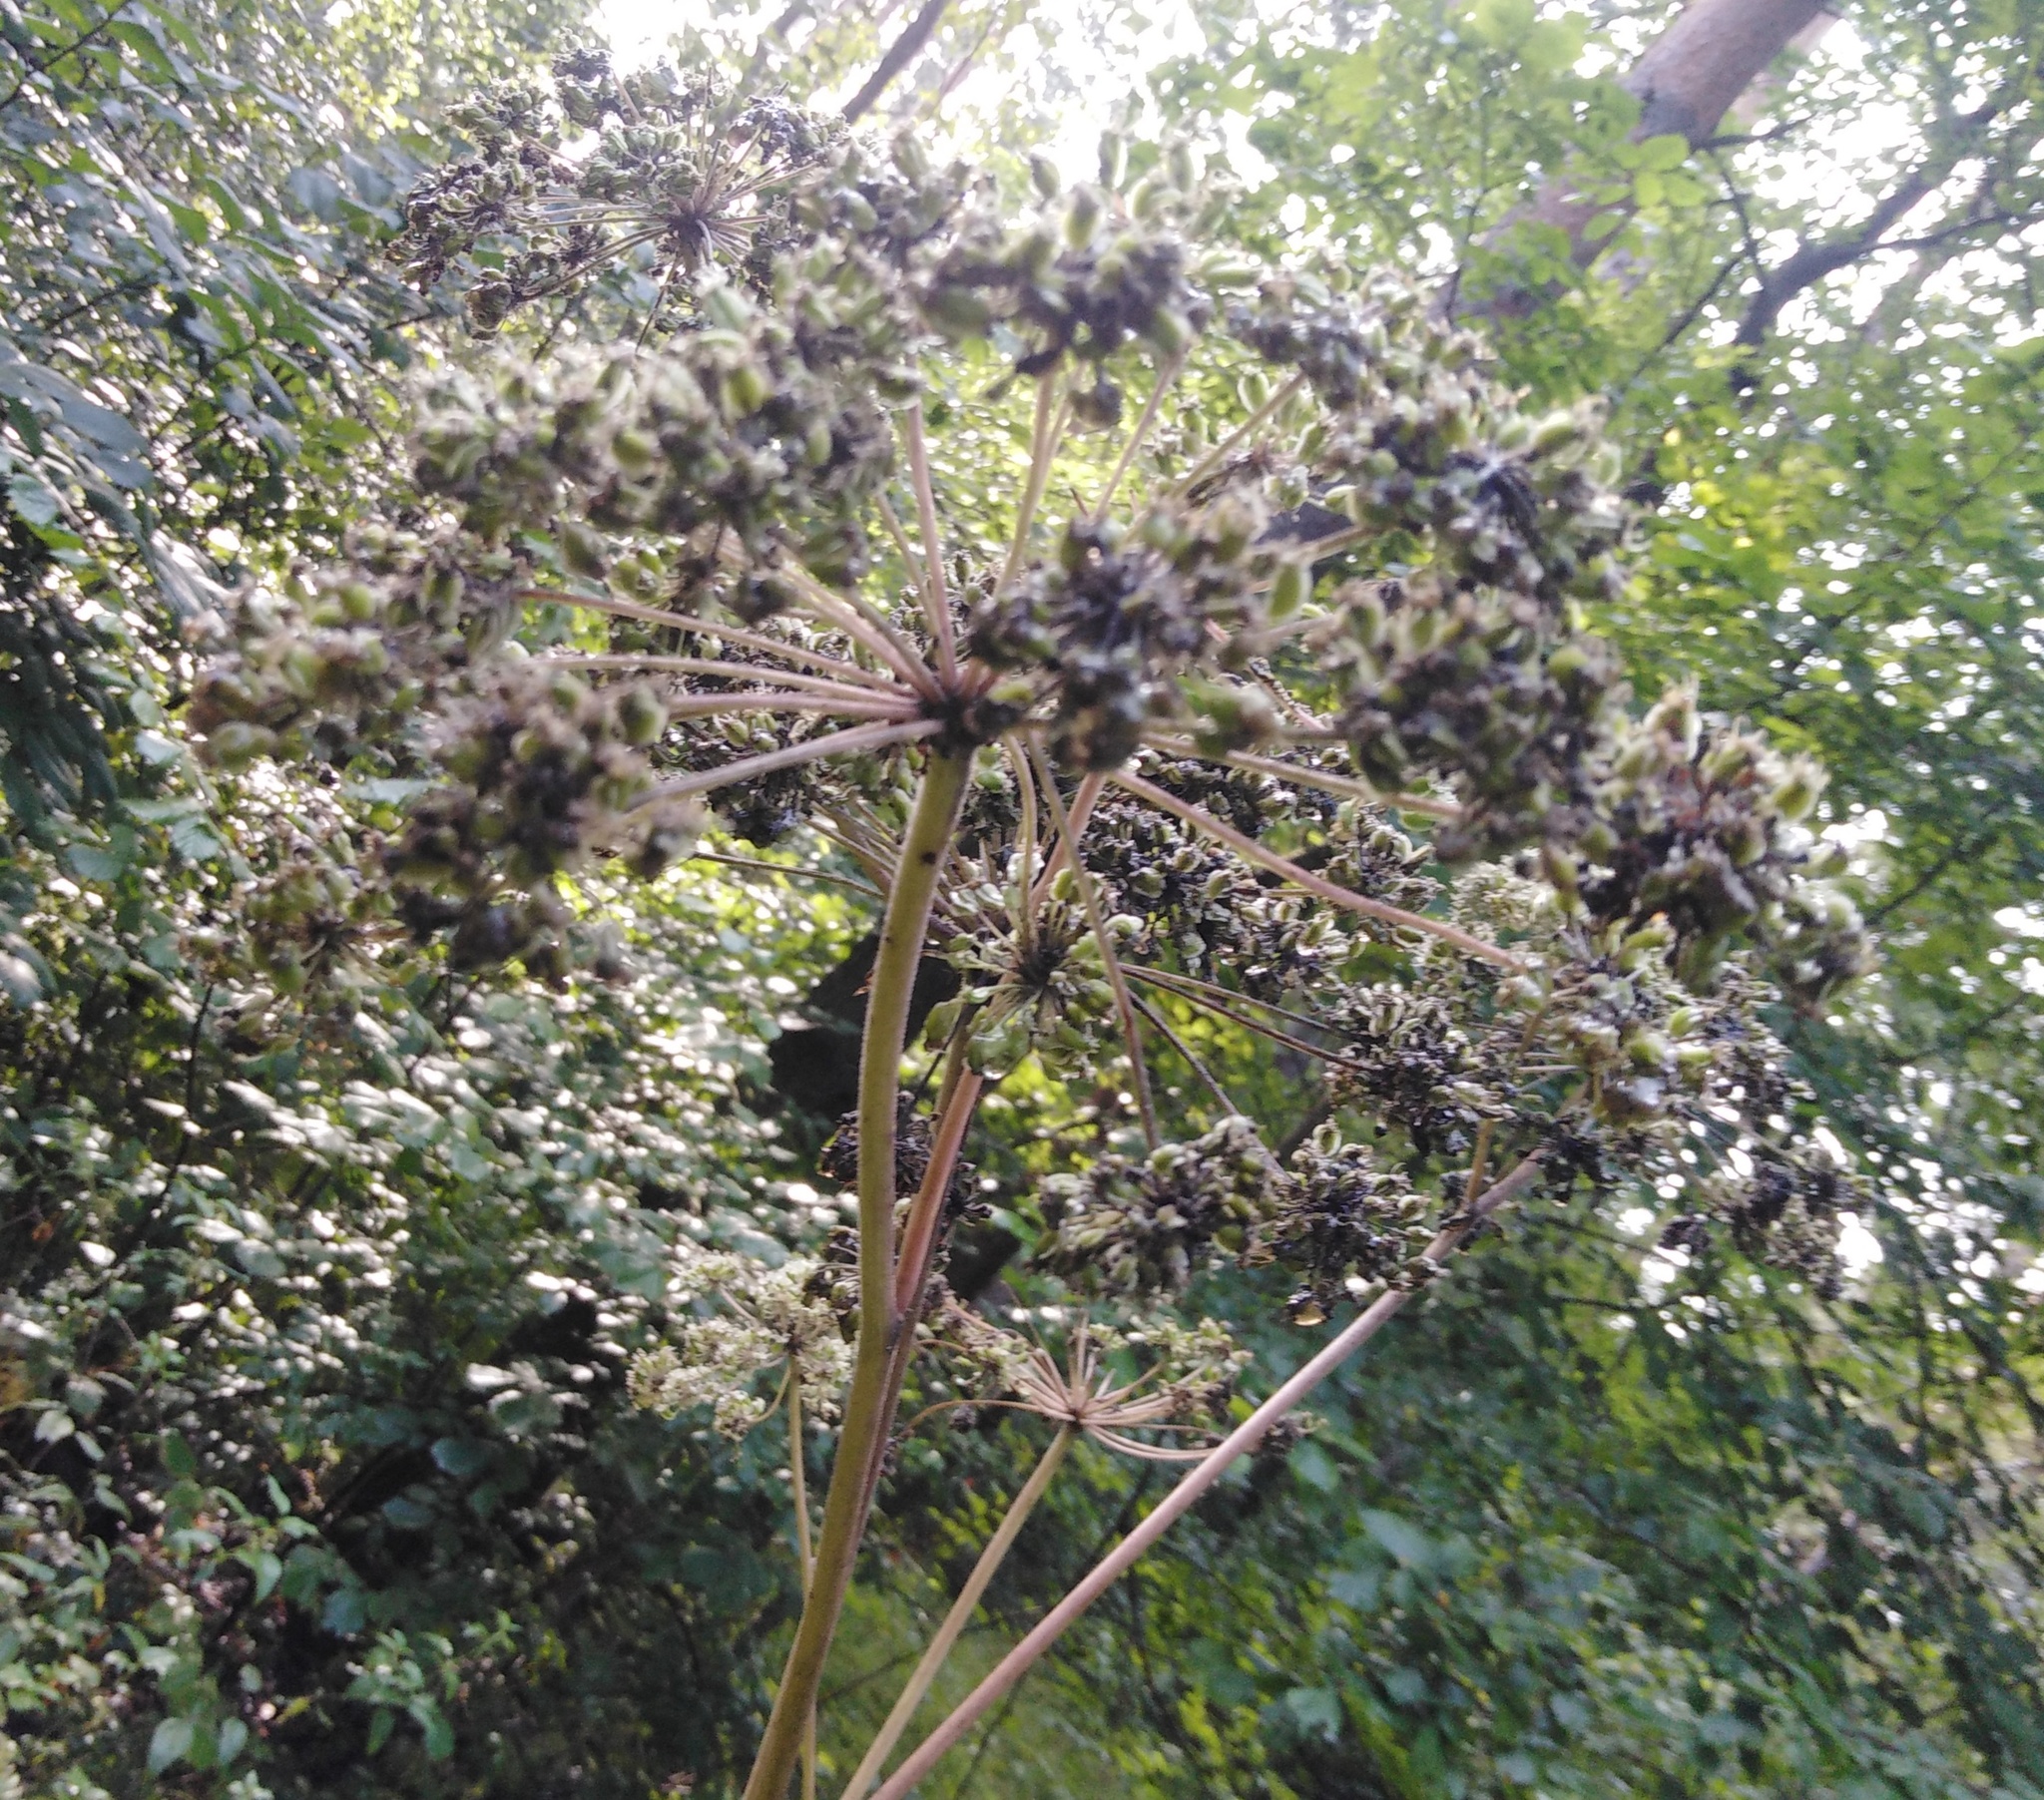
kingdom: Plantae
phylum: Tracheophyta
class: Magnoliopsida
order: Apiales
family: Apiaceae
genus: Angelica
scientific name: Angelica sylvestris
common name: Wild angelica
